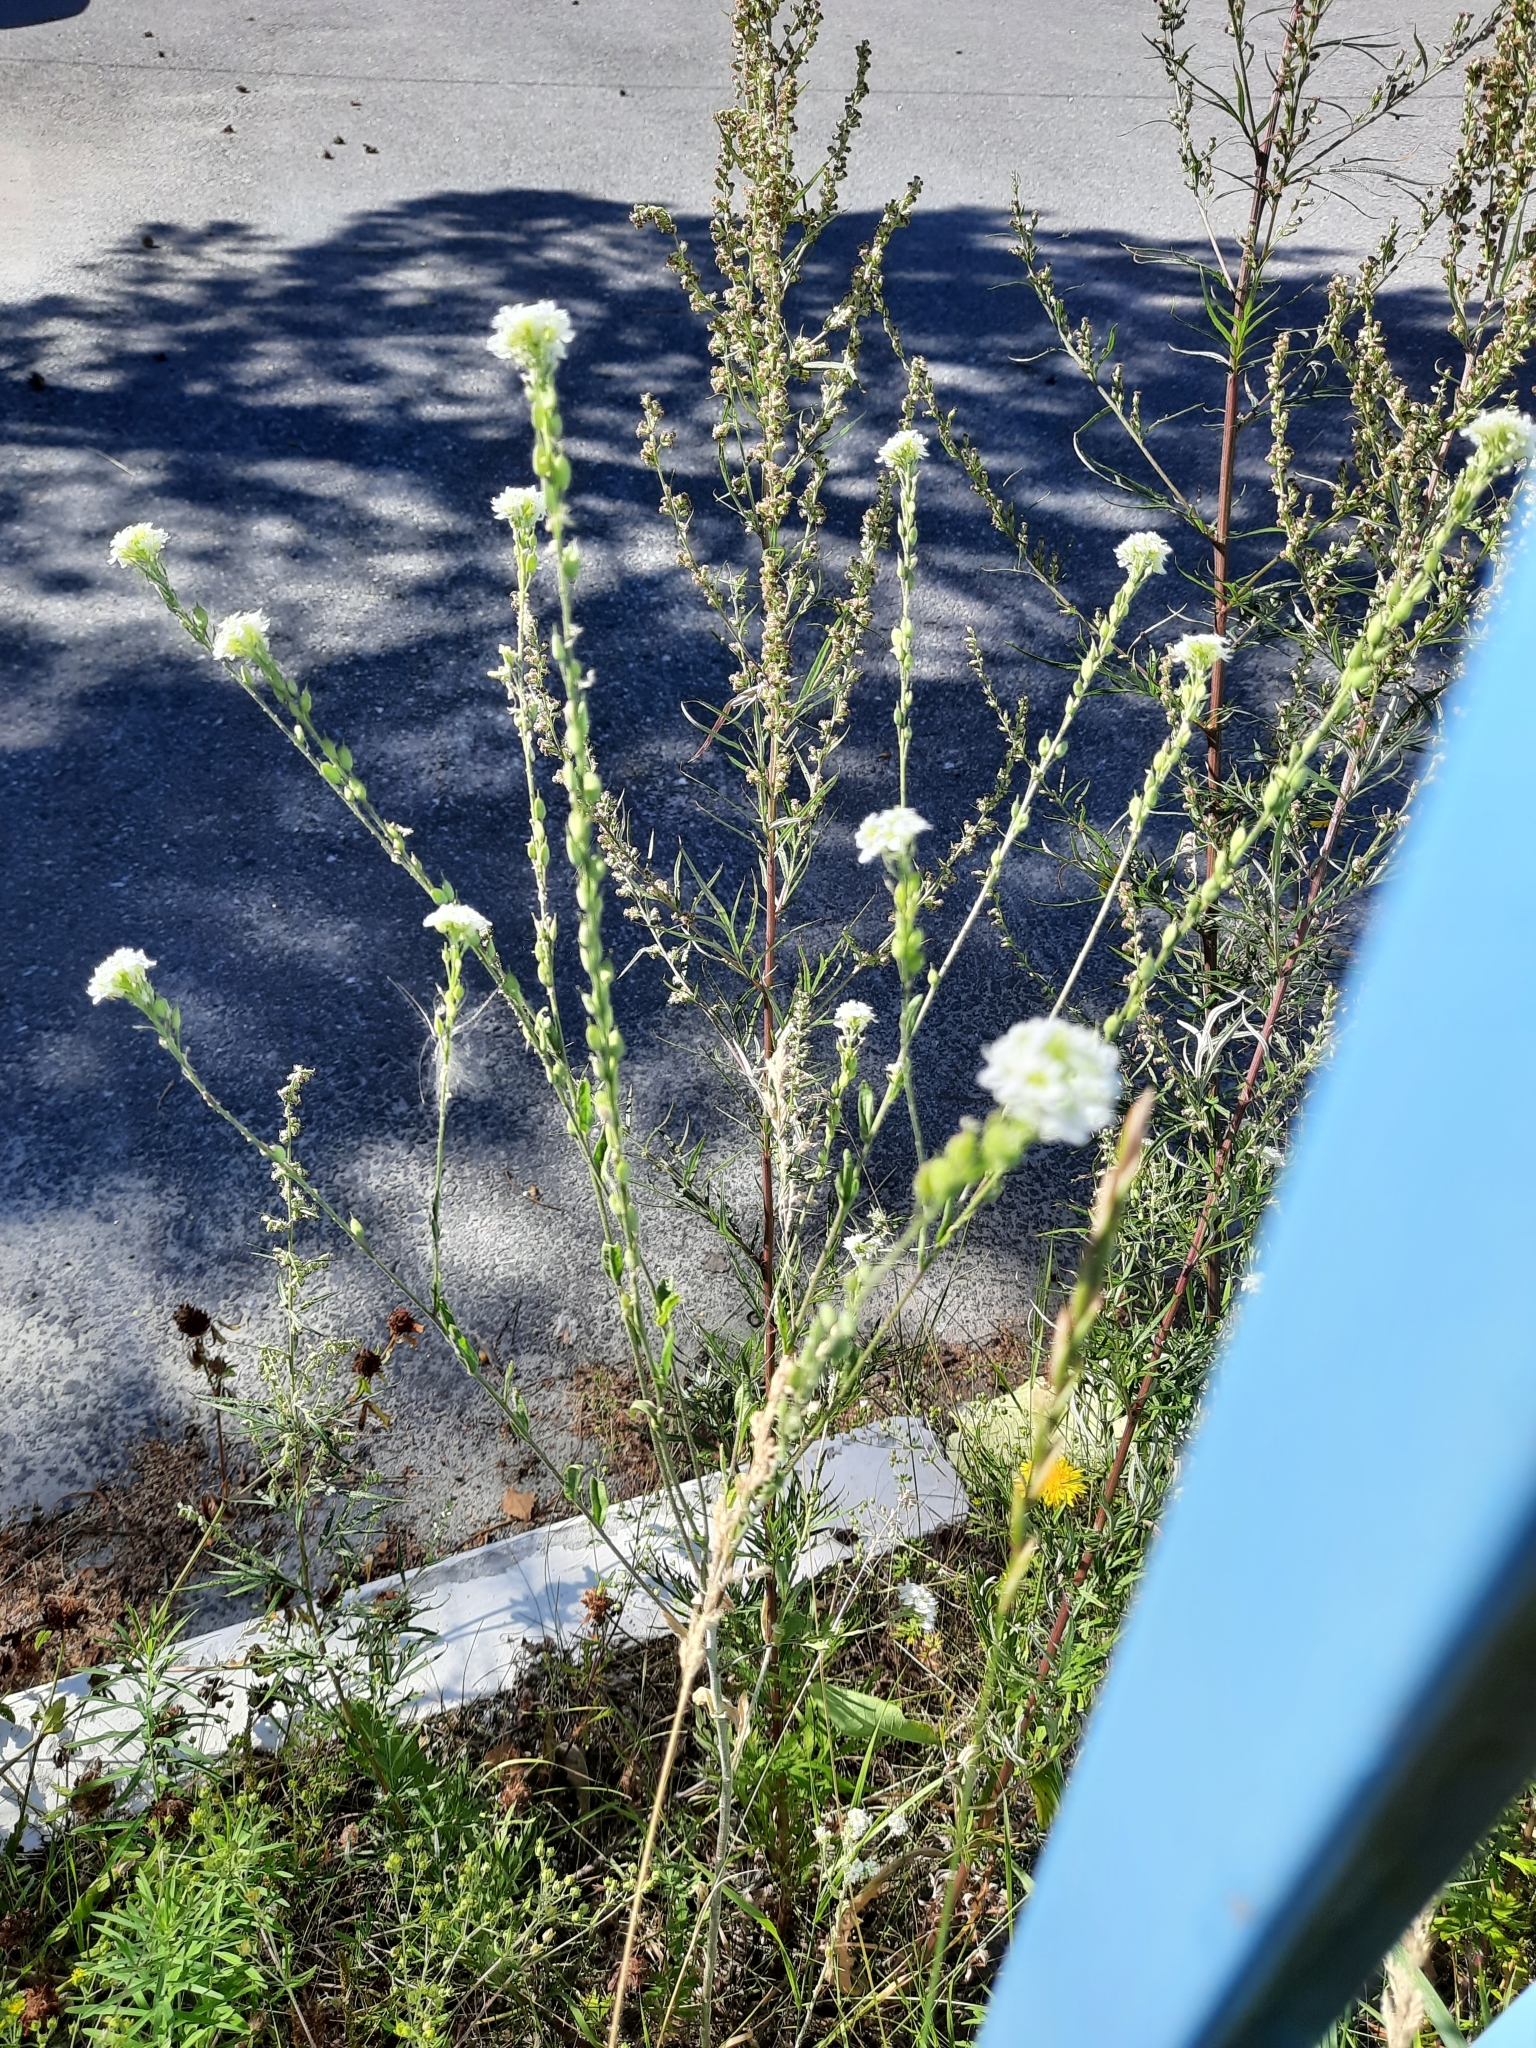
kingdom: Plantae
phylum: Tracheophyta
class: Magnoliopsida
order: Brassicales
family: Brassicaceae
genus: Berteroa
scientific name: Berteroa incana
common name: Hoary alison
